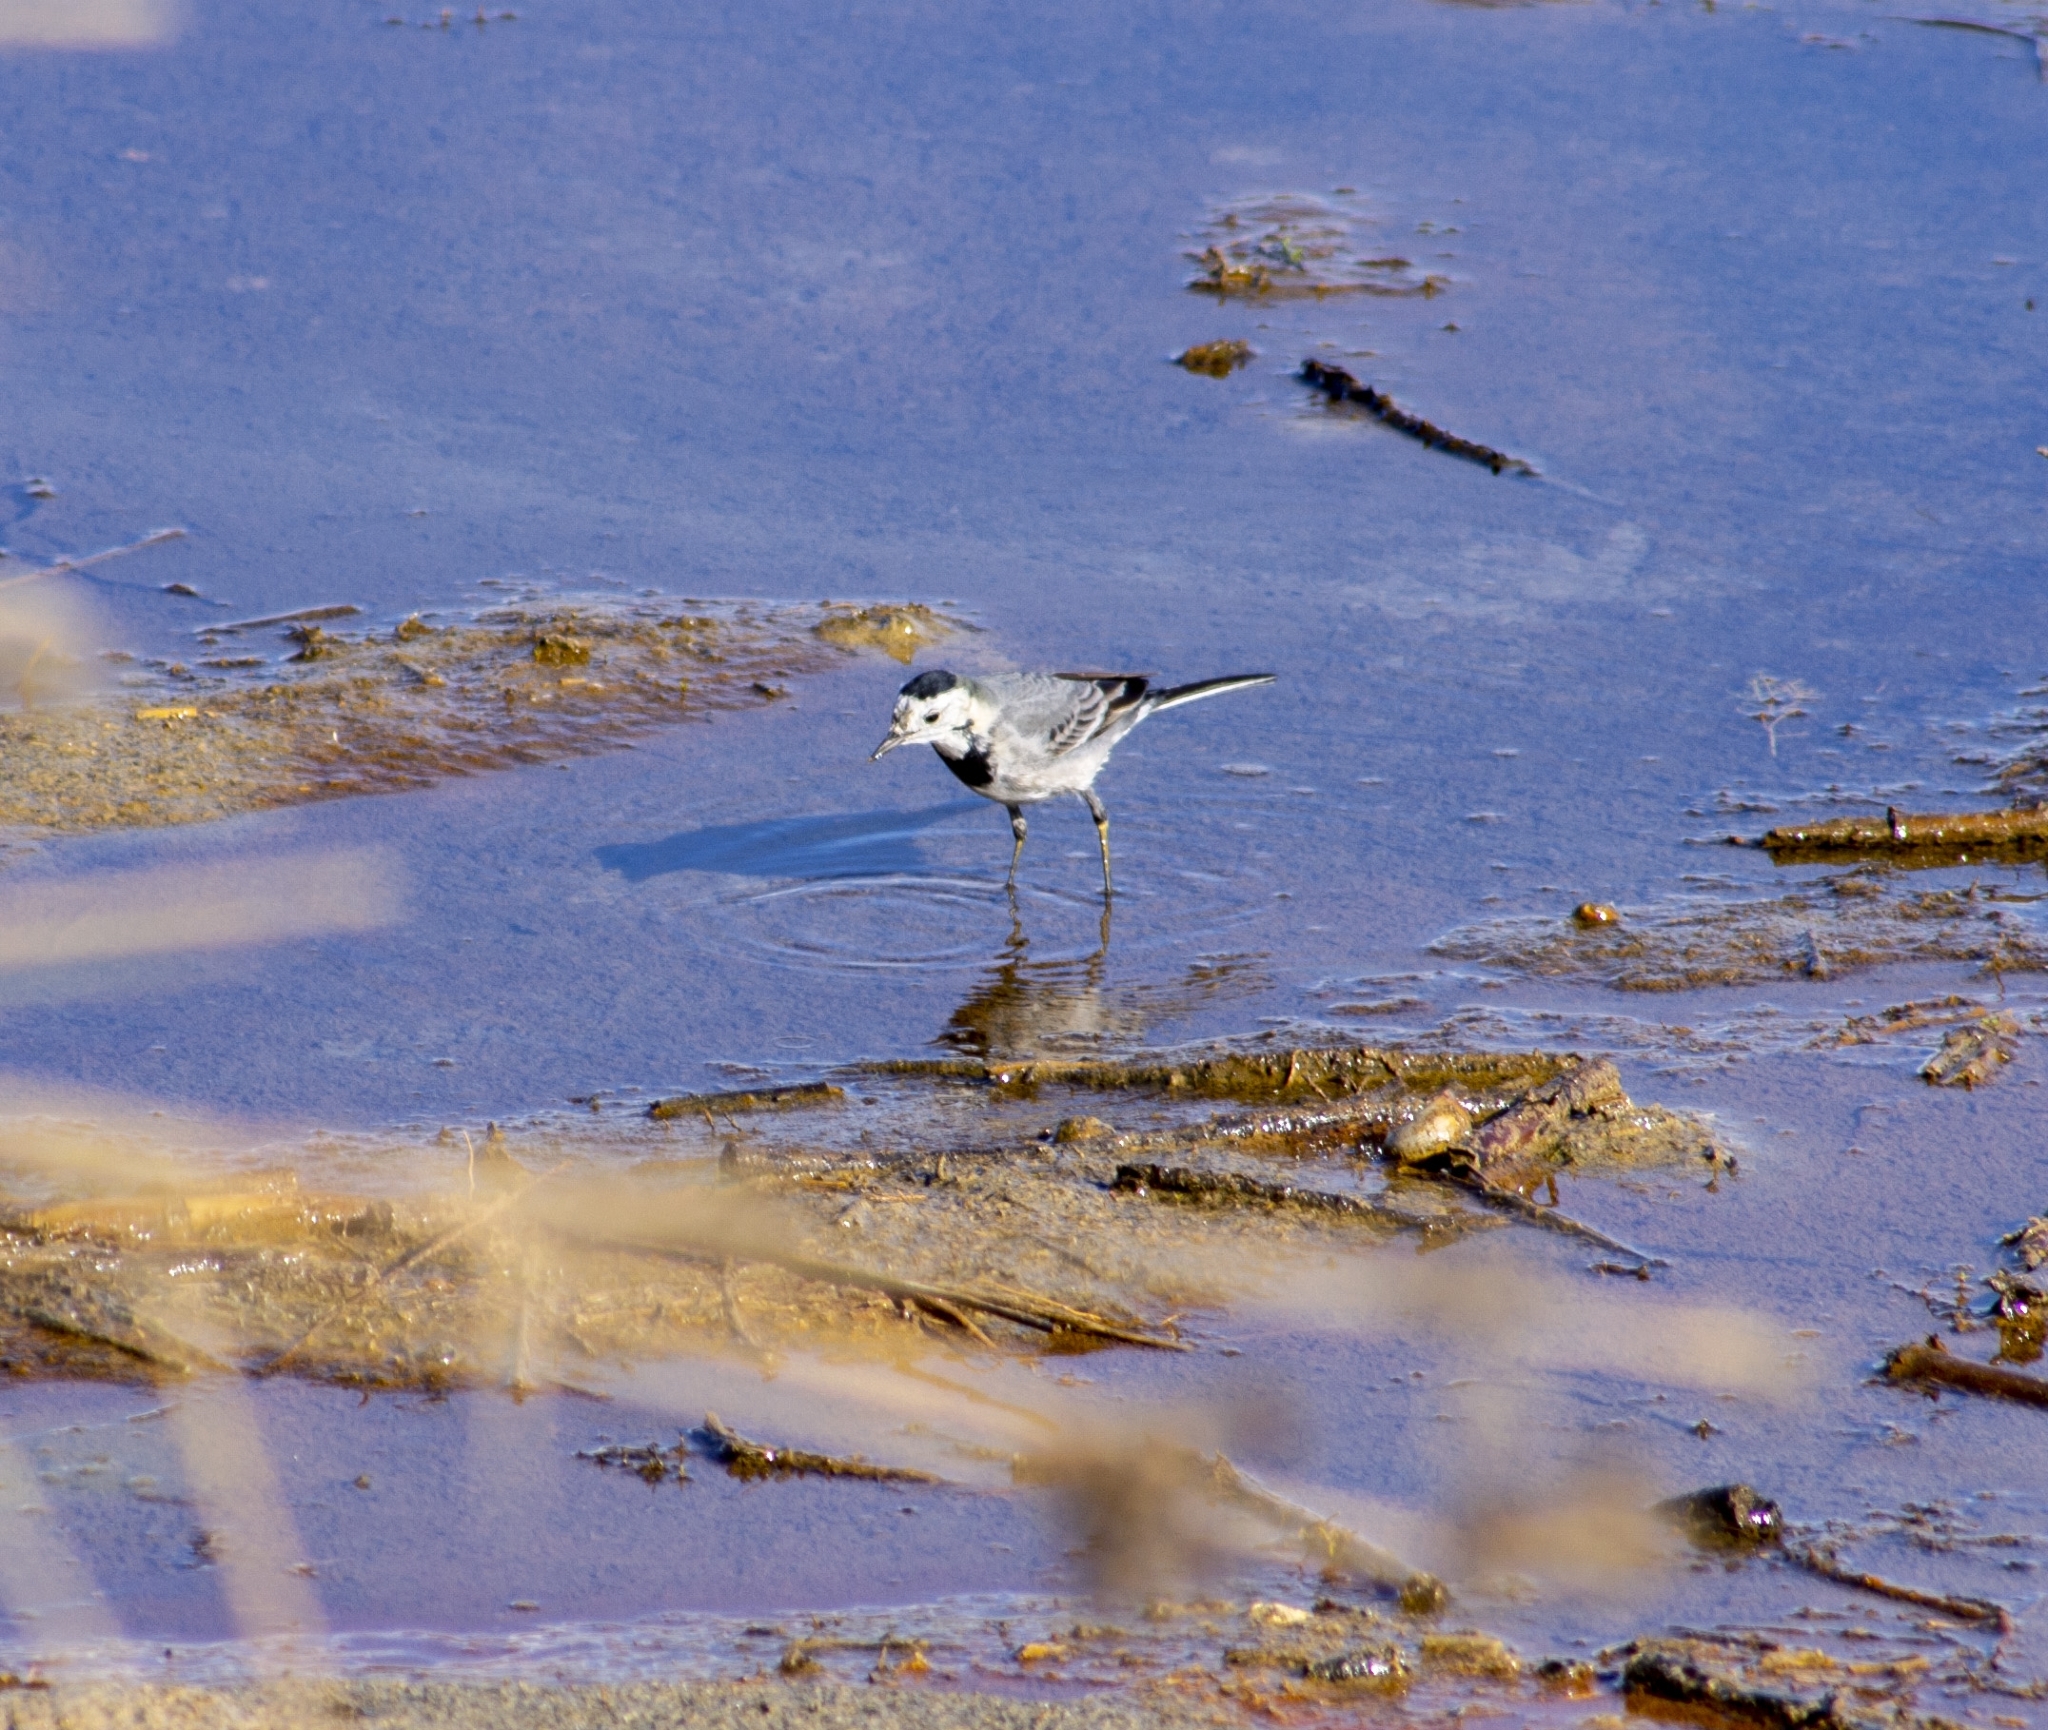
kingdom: Animalia
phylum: Chordata
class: Aves
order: Passeriformes
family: Motacillidae
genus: Motacilla
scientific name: Motacilla alba
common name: White wagtail
